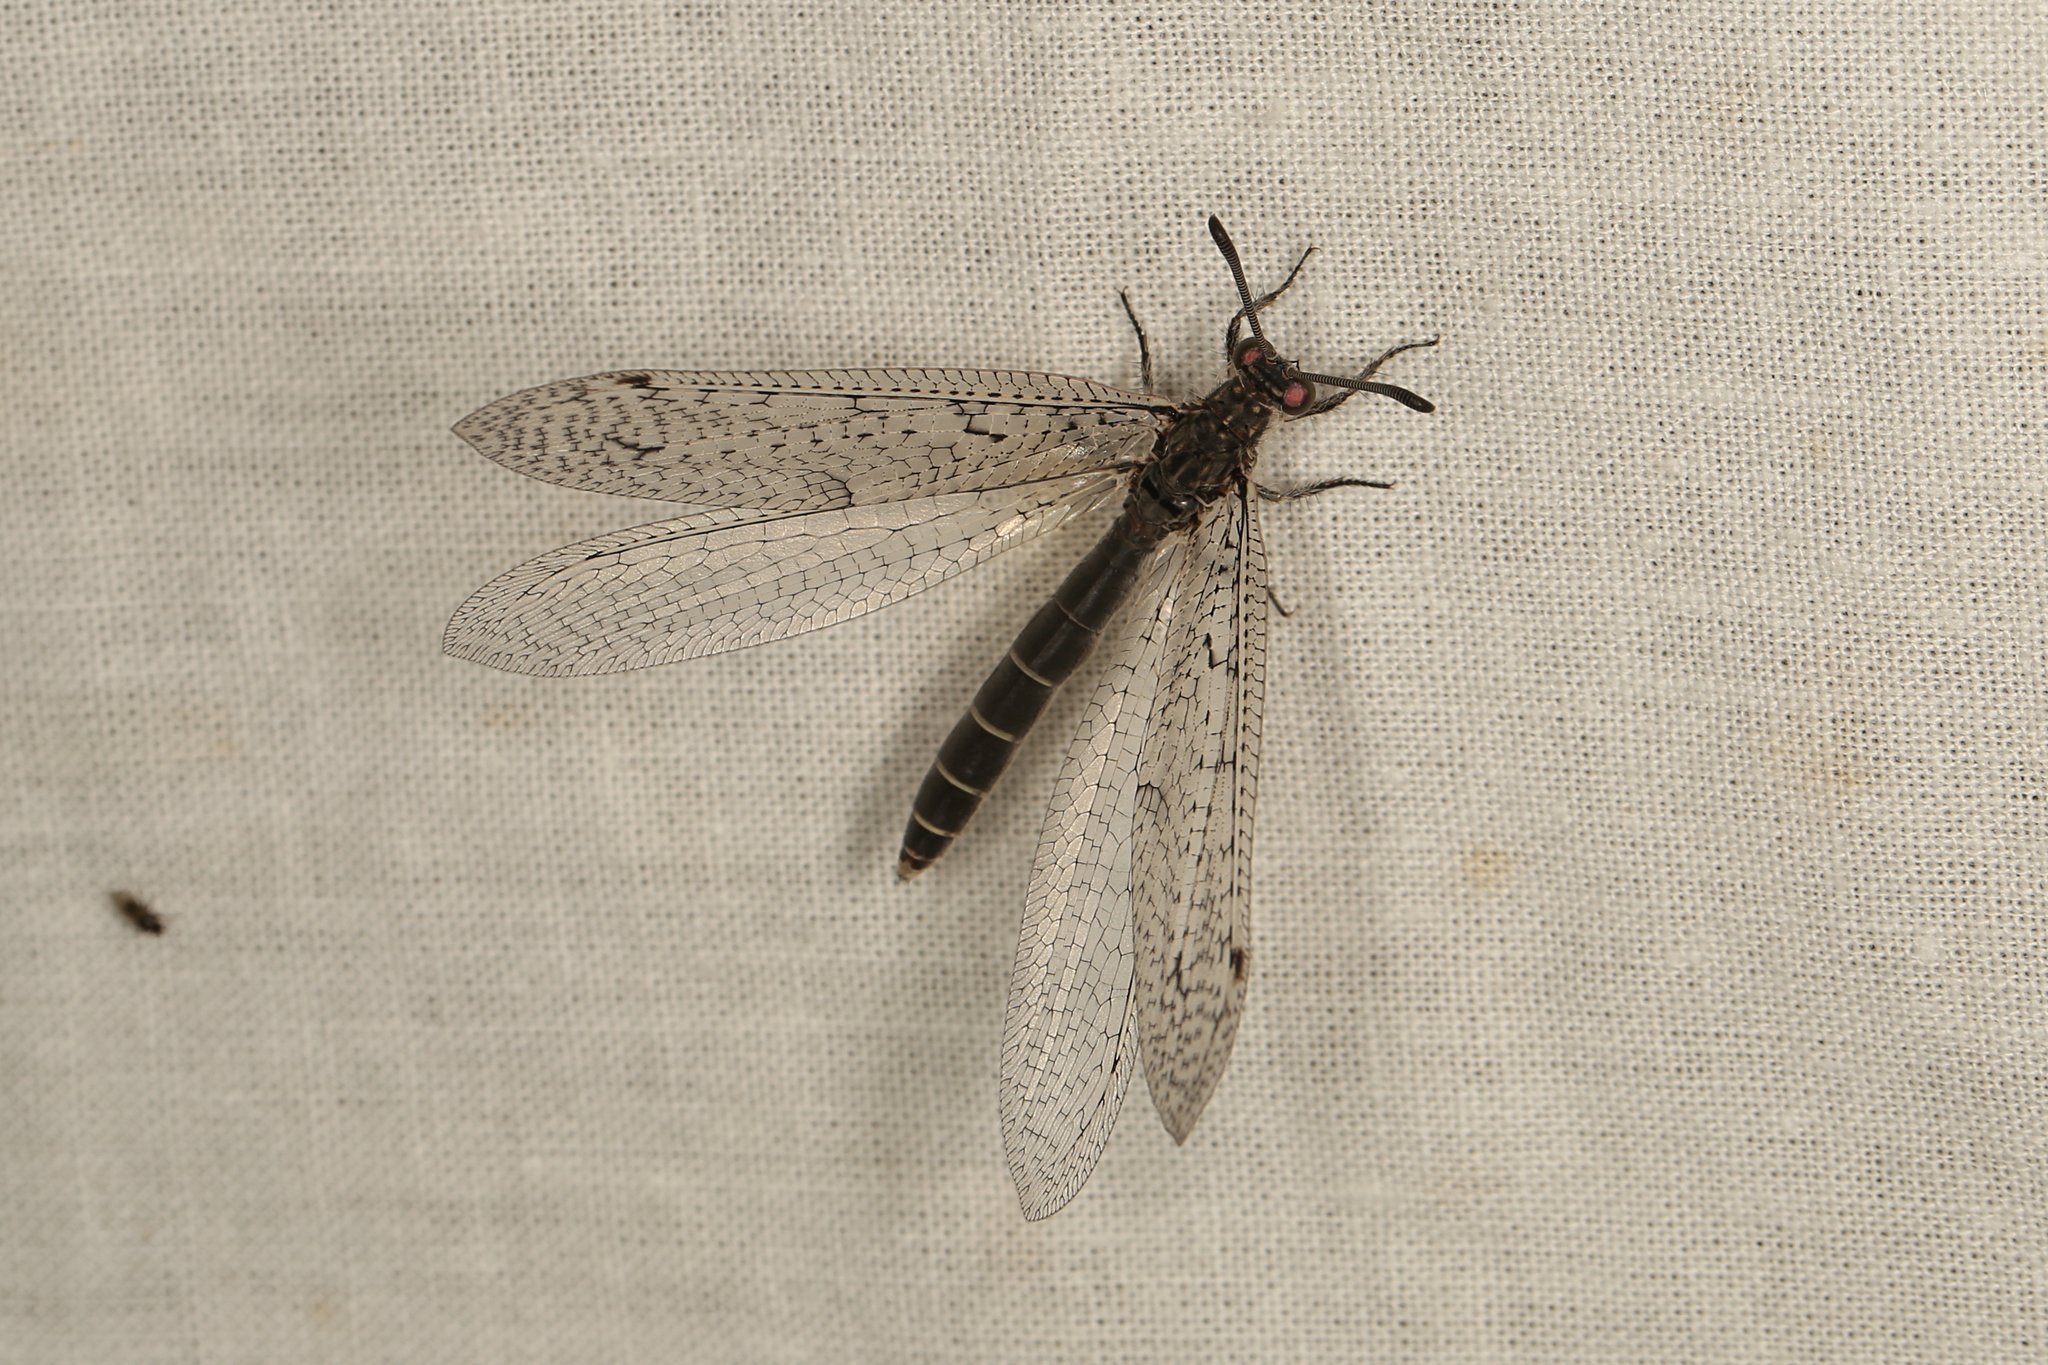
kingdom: Animalia
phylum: Arthropoda
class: Insecta
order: Neuroptera
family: Myrmeleontidae
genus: Distoplectron
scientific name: Distoplectron gerstaeckeri
